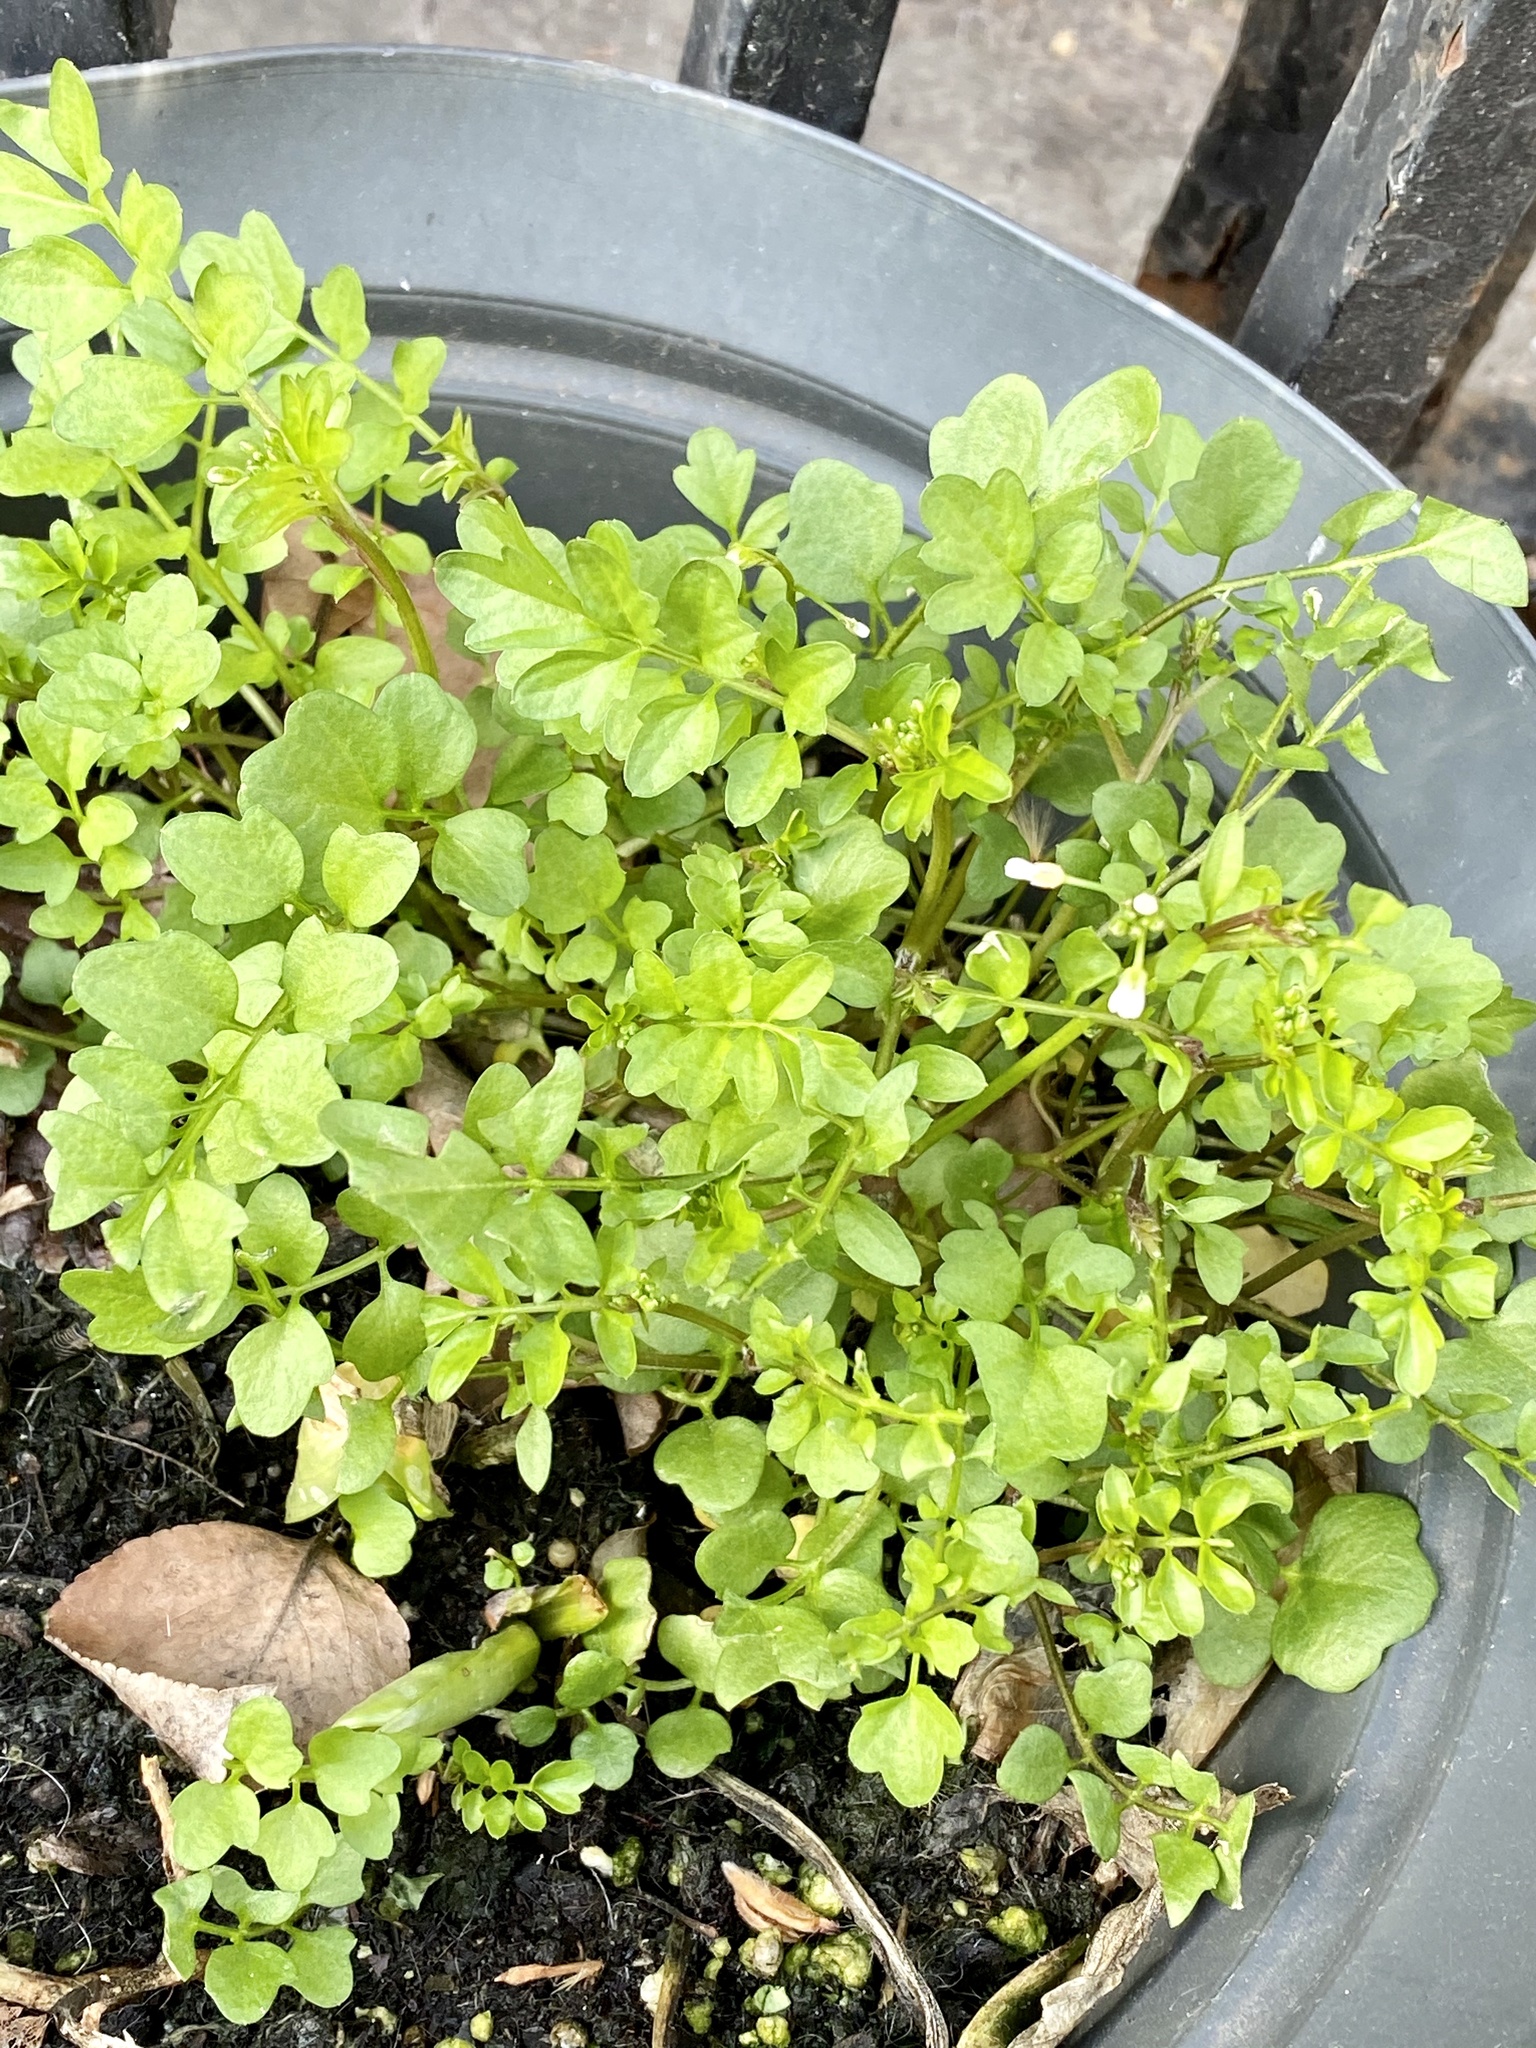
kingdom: Plantae
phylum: Tracheophyta
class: Magnoliopsida
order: Brassicales
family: Brassicaceae
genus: Cardamine
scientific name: Cardamine hirsuta
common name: Hairy bittercress
